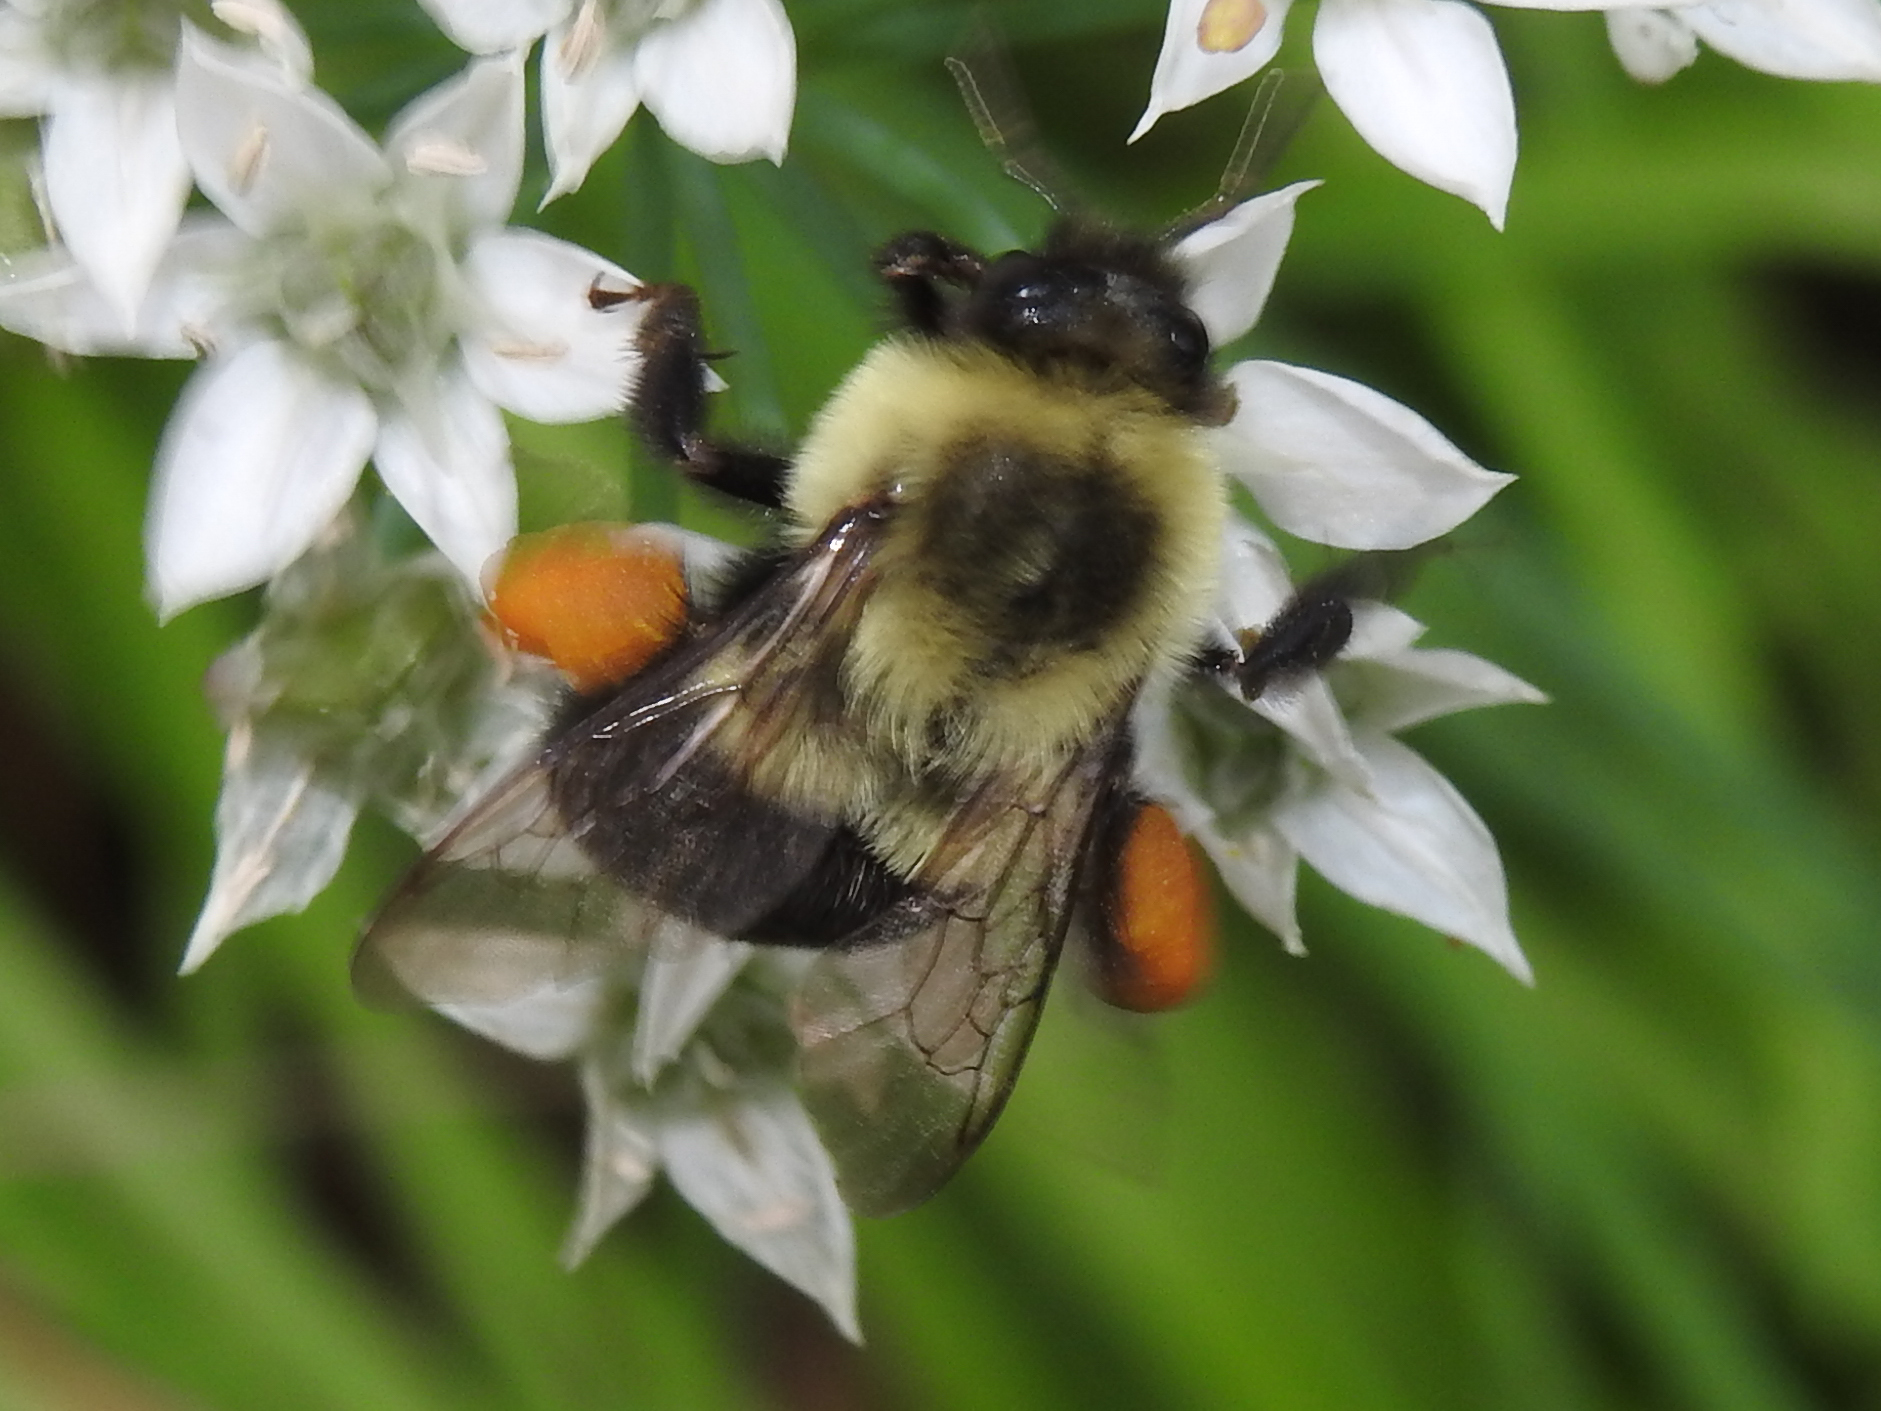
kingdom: Animalia
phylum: Arthropoda
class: Insecta
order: Hymenoptera
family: Apidae
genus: Bombus
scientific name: Bombus impatiens
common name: Common eastern bumble bee
